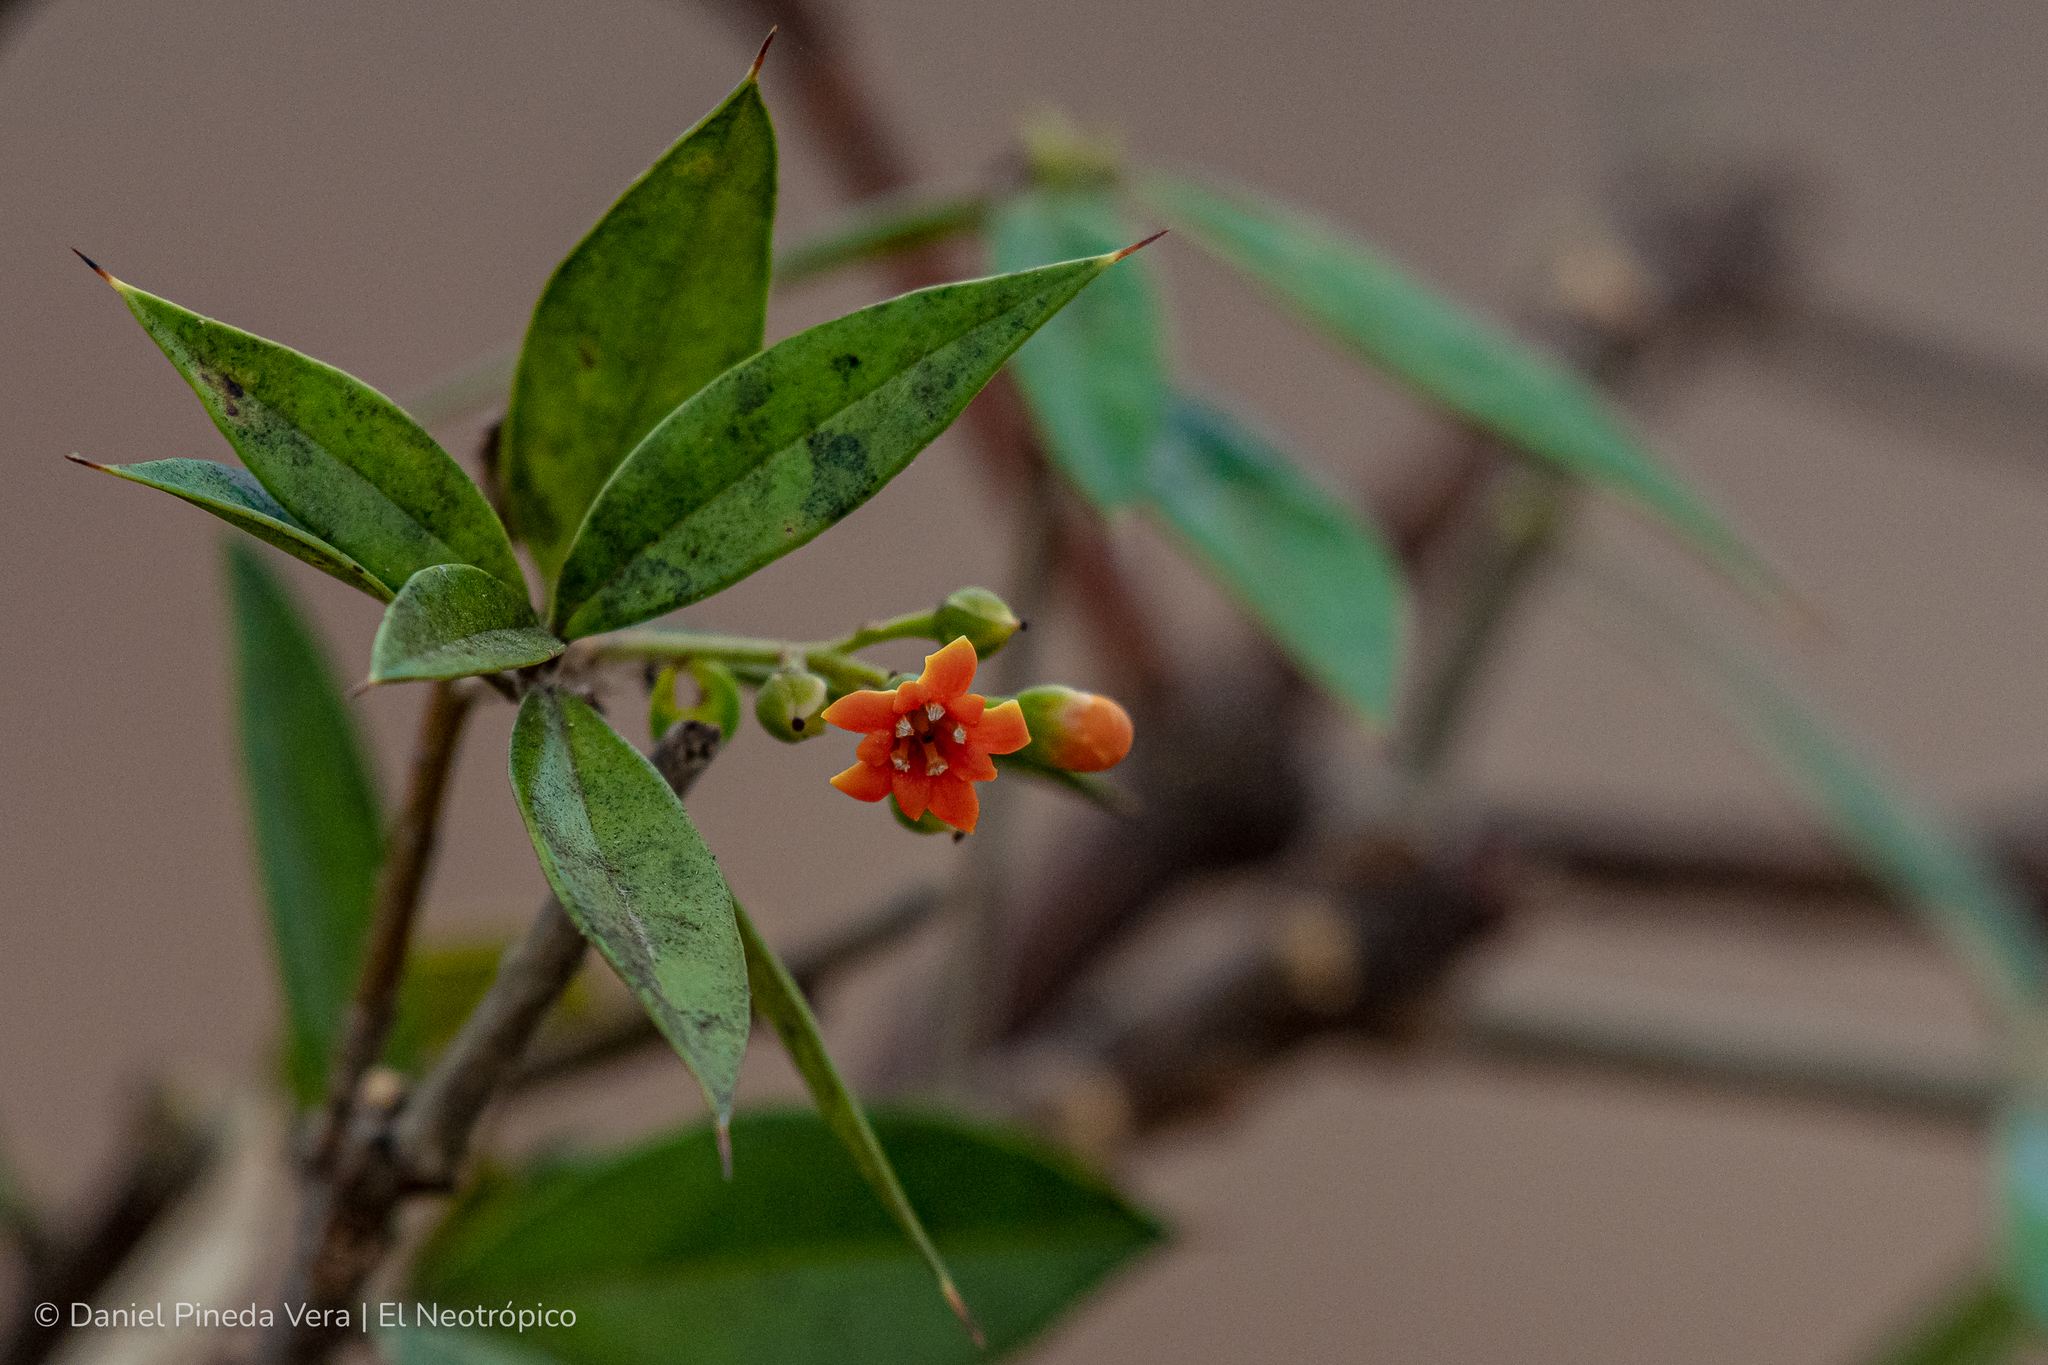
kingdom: Plantae
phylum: Tracheophyta
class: Magnoliopsida
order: Ericales
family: Primulaceae
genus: Bonellia
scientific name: Bonellia macrocarpa
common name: Primrose
